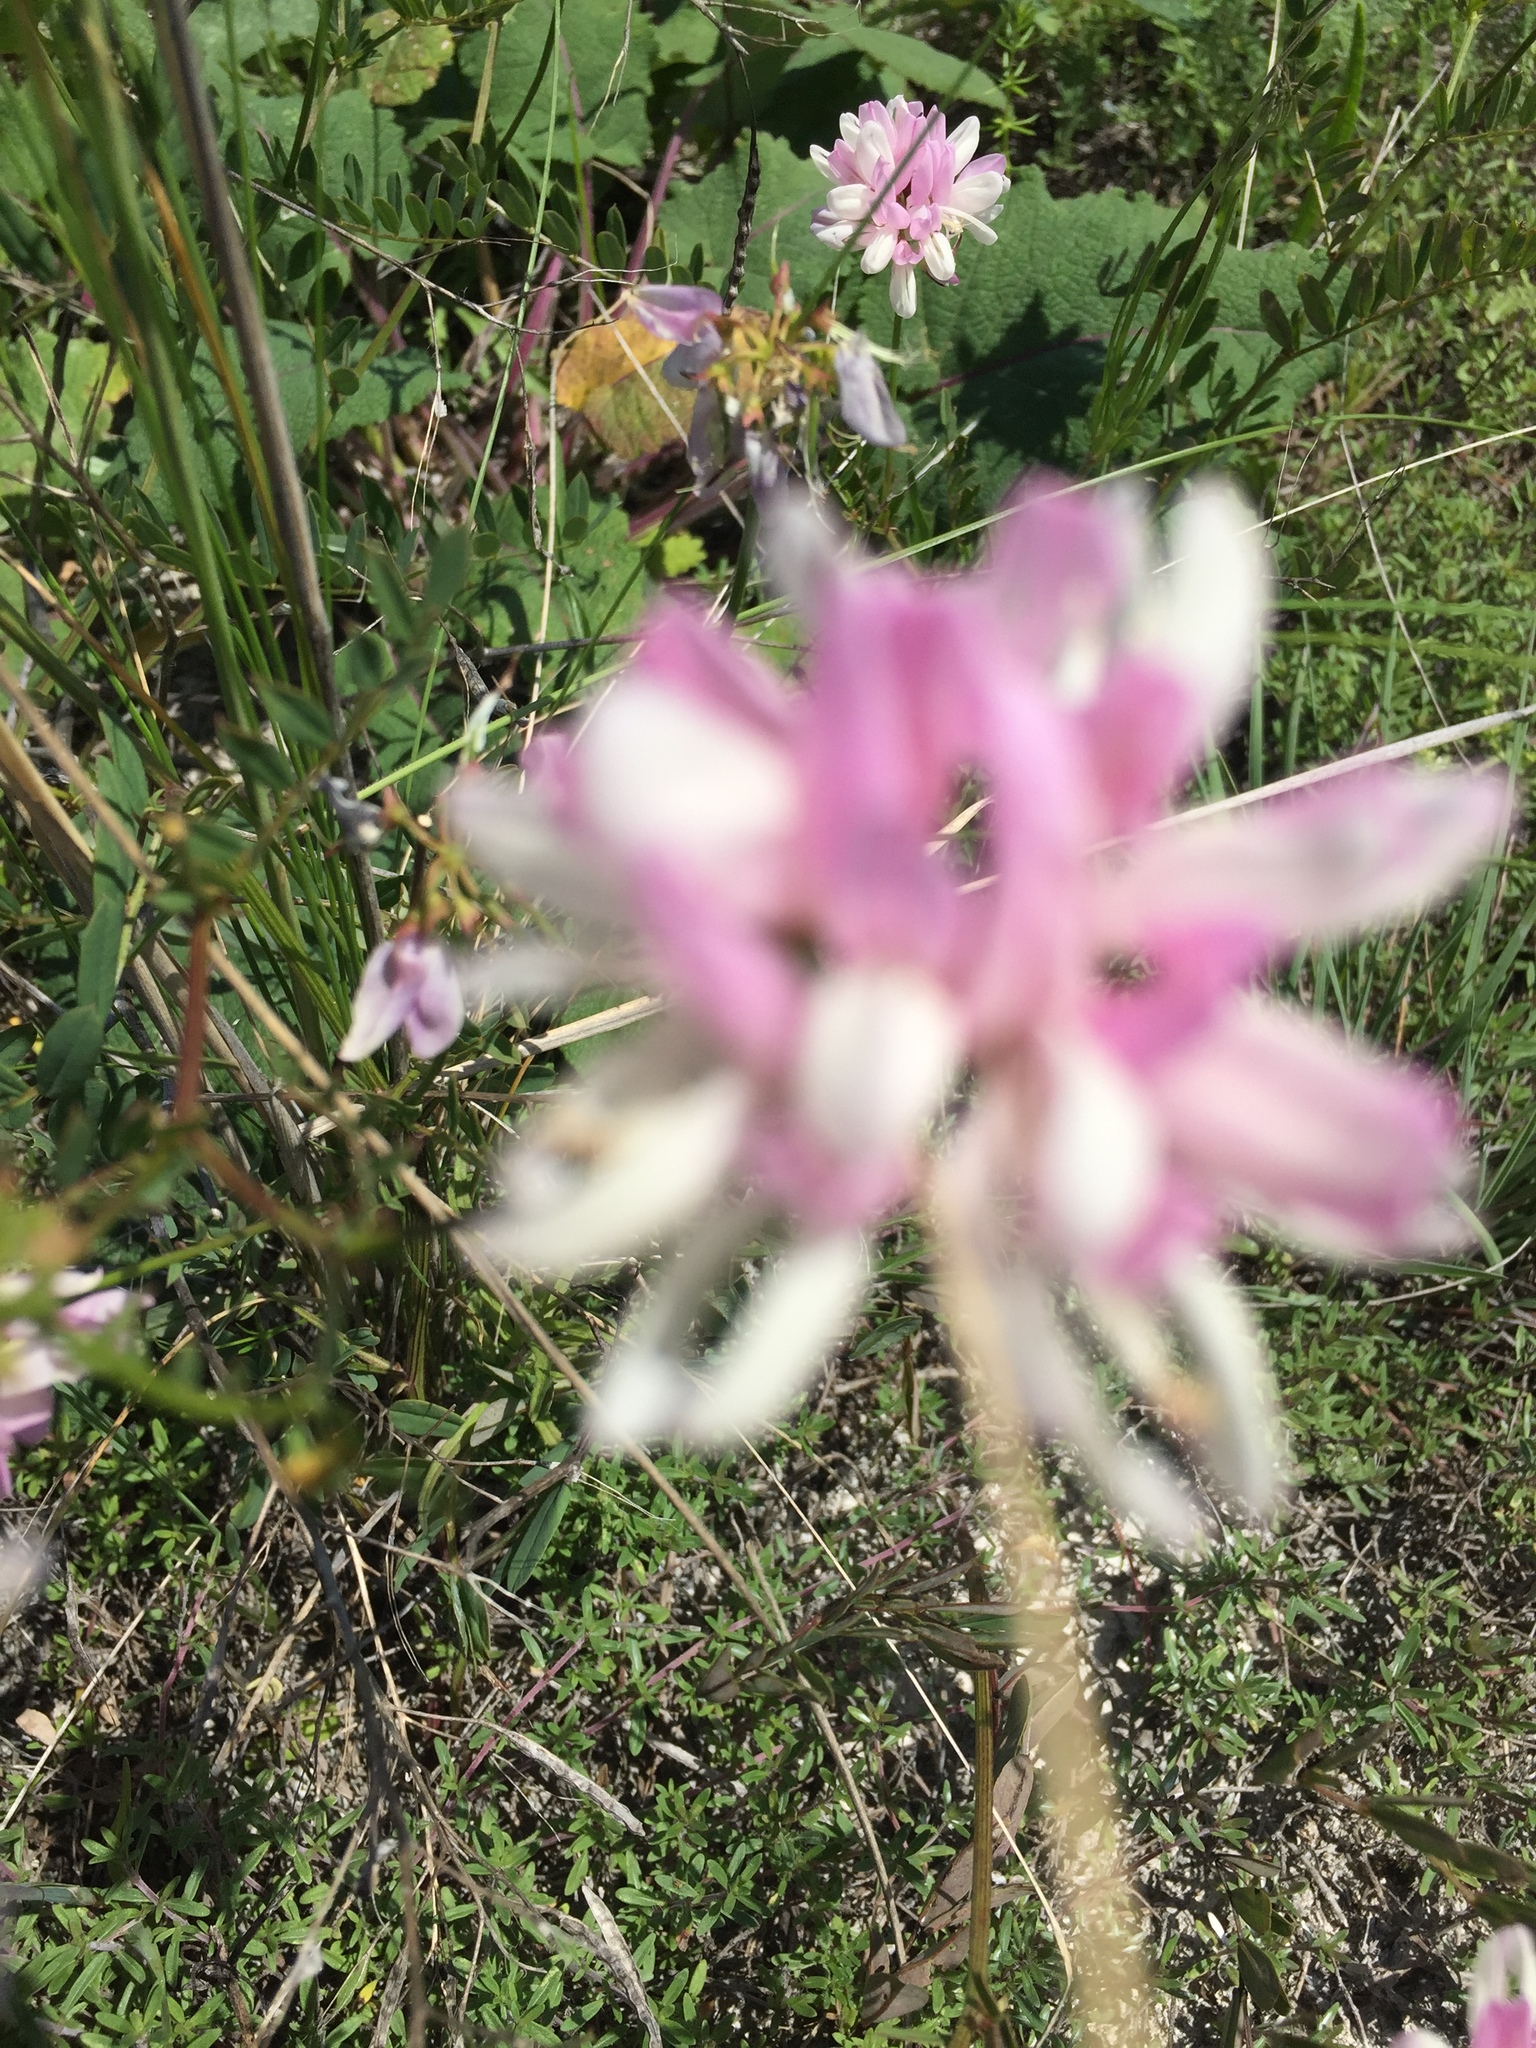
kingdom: Plantae
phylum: Tracheophyta
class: Magnoliopsida
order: Fabales
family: Fabaceae
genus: Coronilla
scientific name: Coronilla varia
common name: Crownvetch
